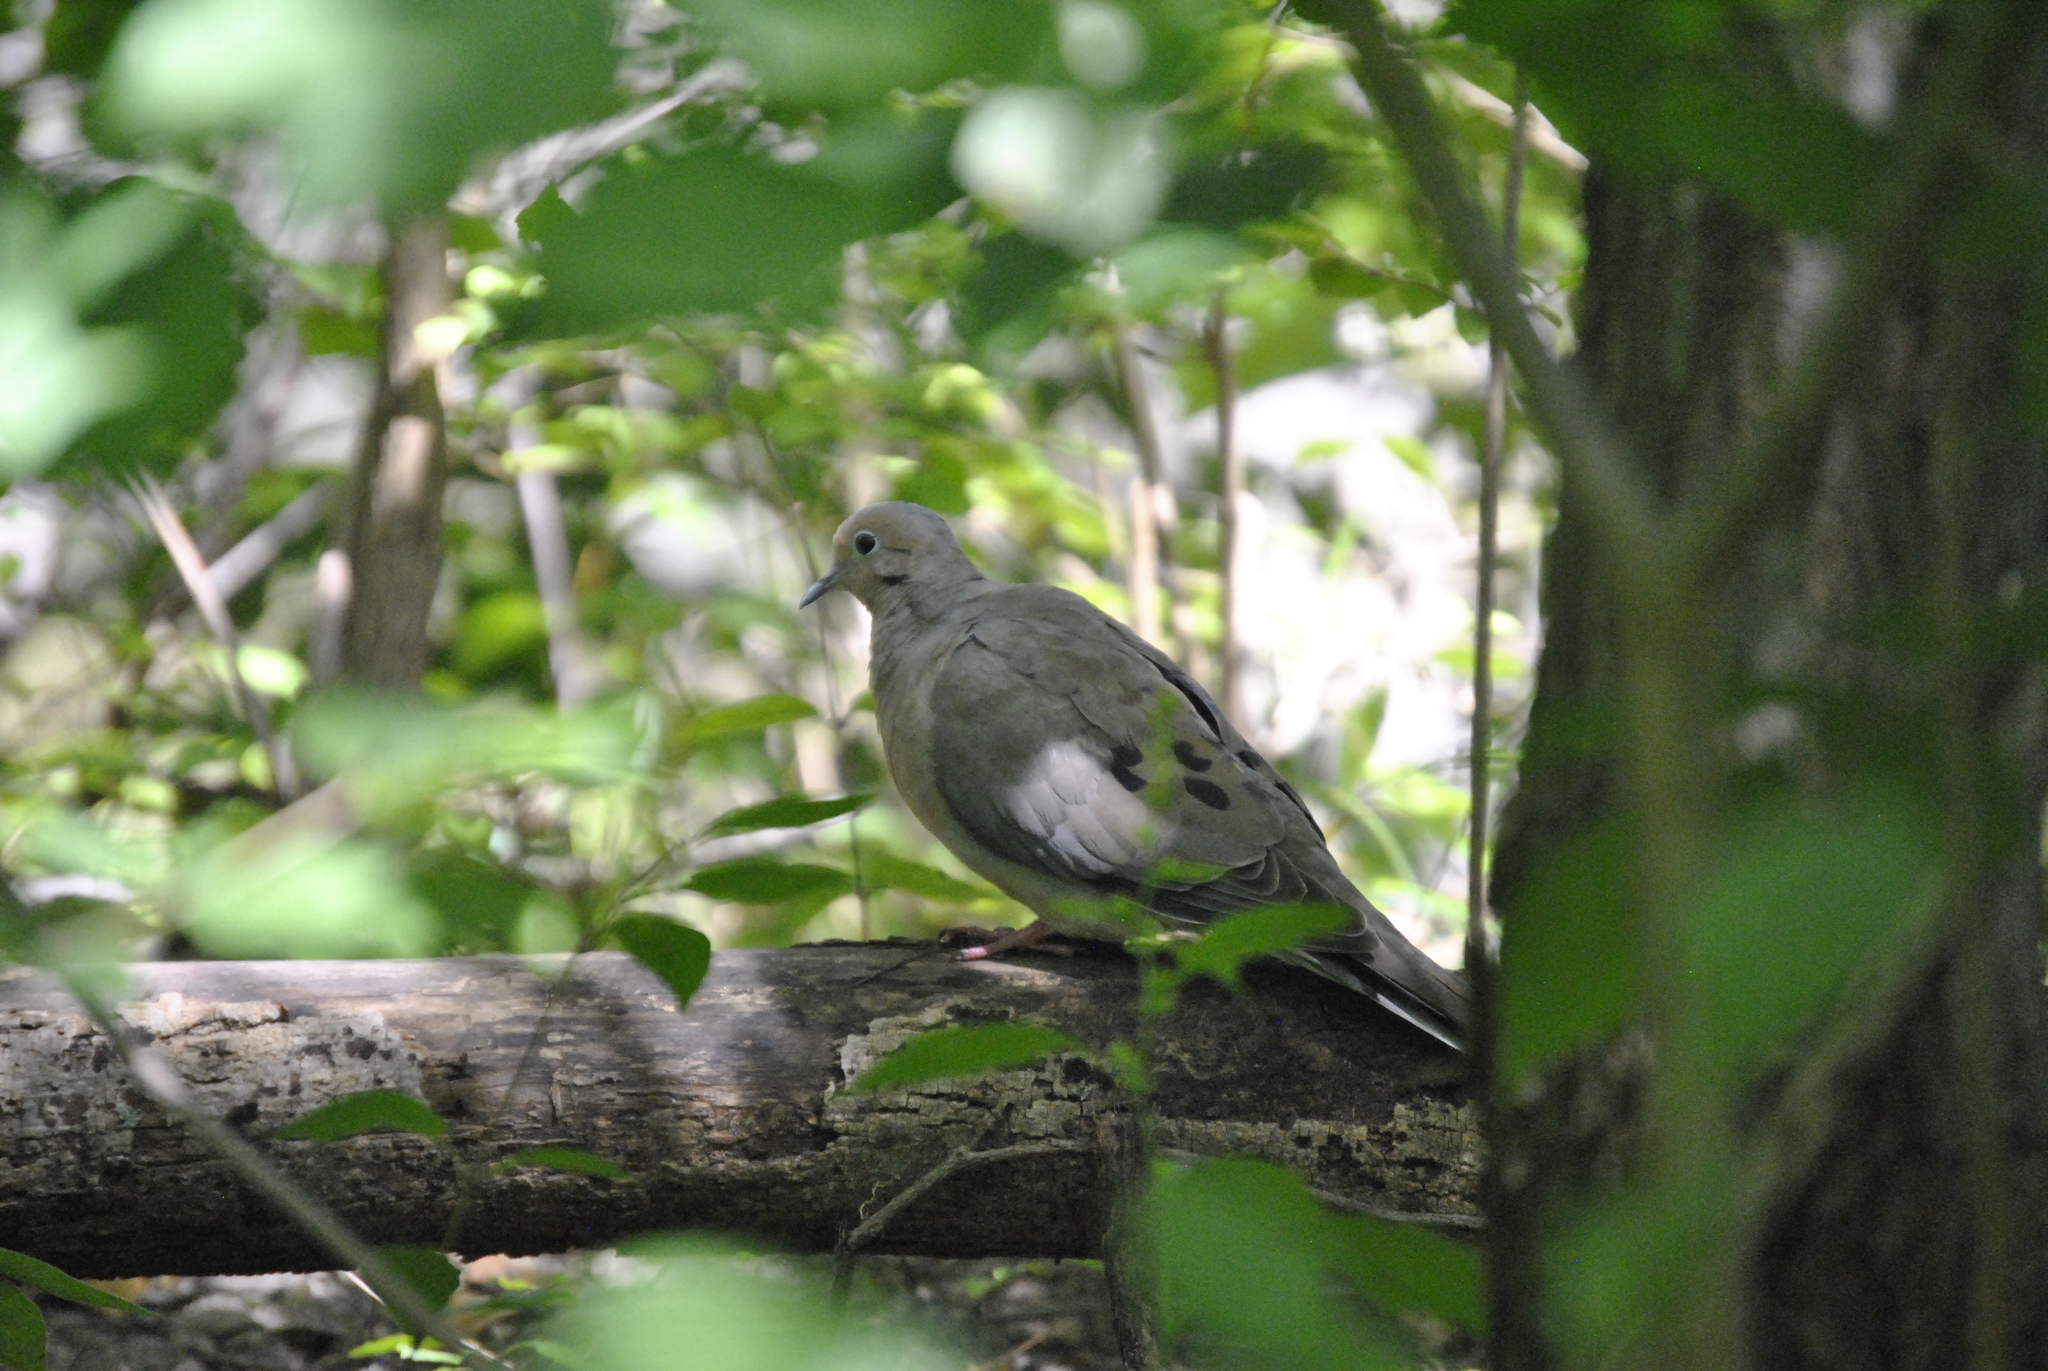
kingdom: Animalia
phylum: Chordata
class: Aves
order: Columbiformes
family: Columbidae
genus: Zenaida
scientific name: Zenaida macroura
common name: Mourning dove
